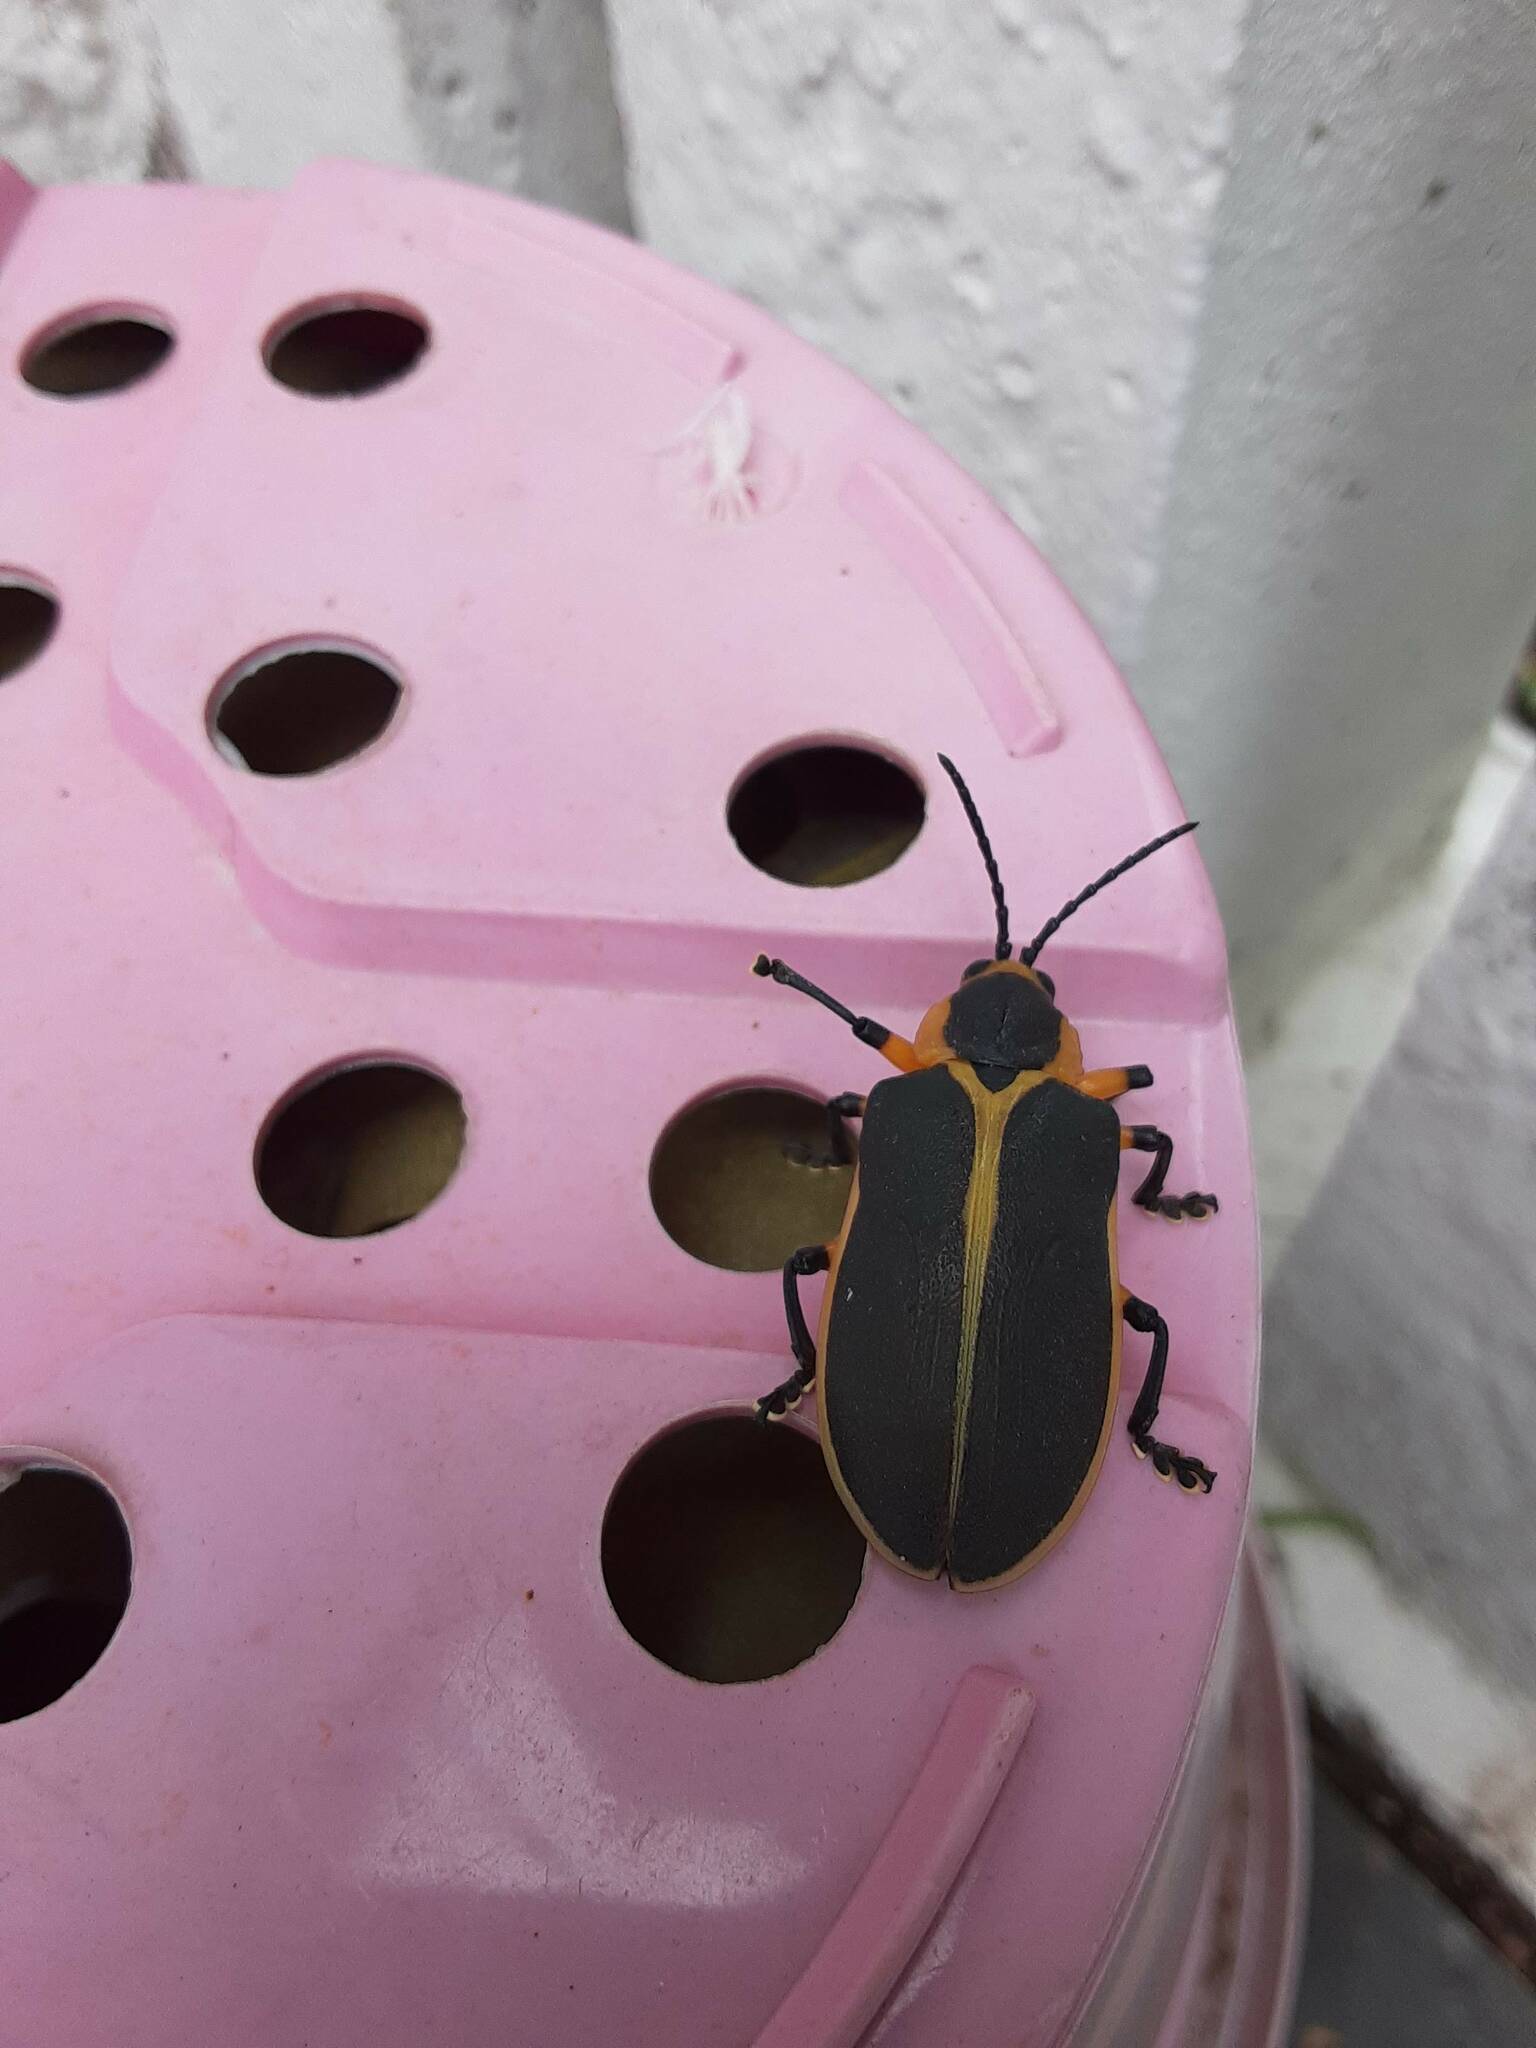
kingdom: Animalia
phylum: Arthropoda
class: Insecta
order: Coleoptera
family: Chrysomelidae
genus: Mecistomela
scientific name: Mecistomela marginata
